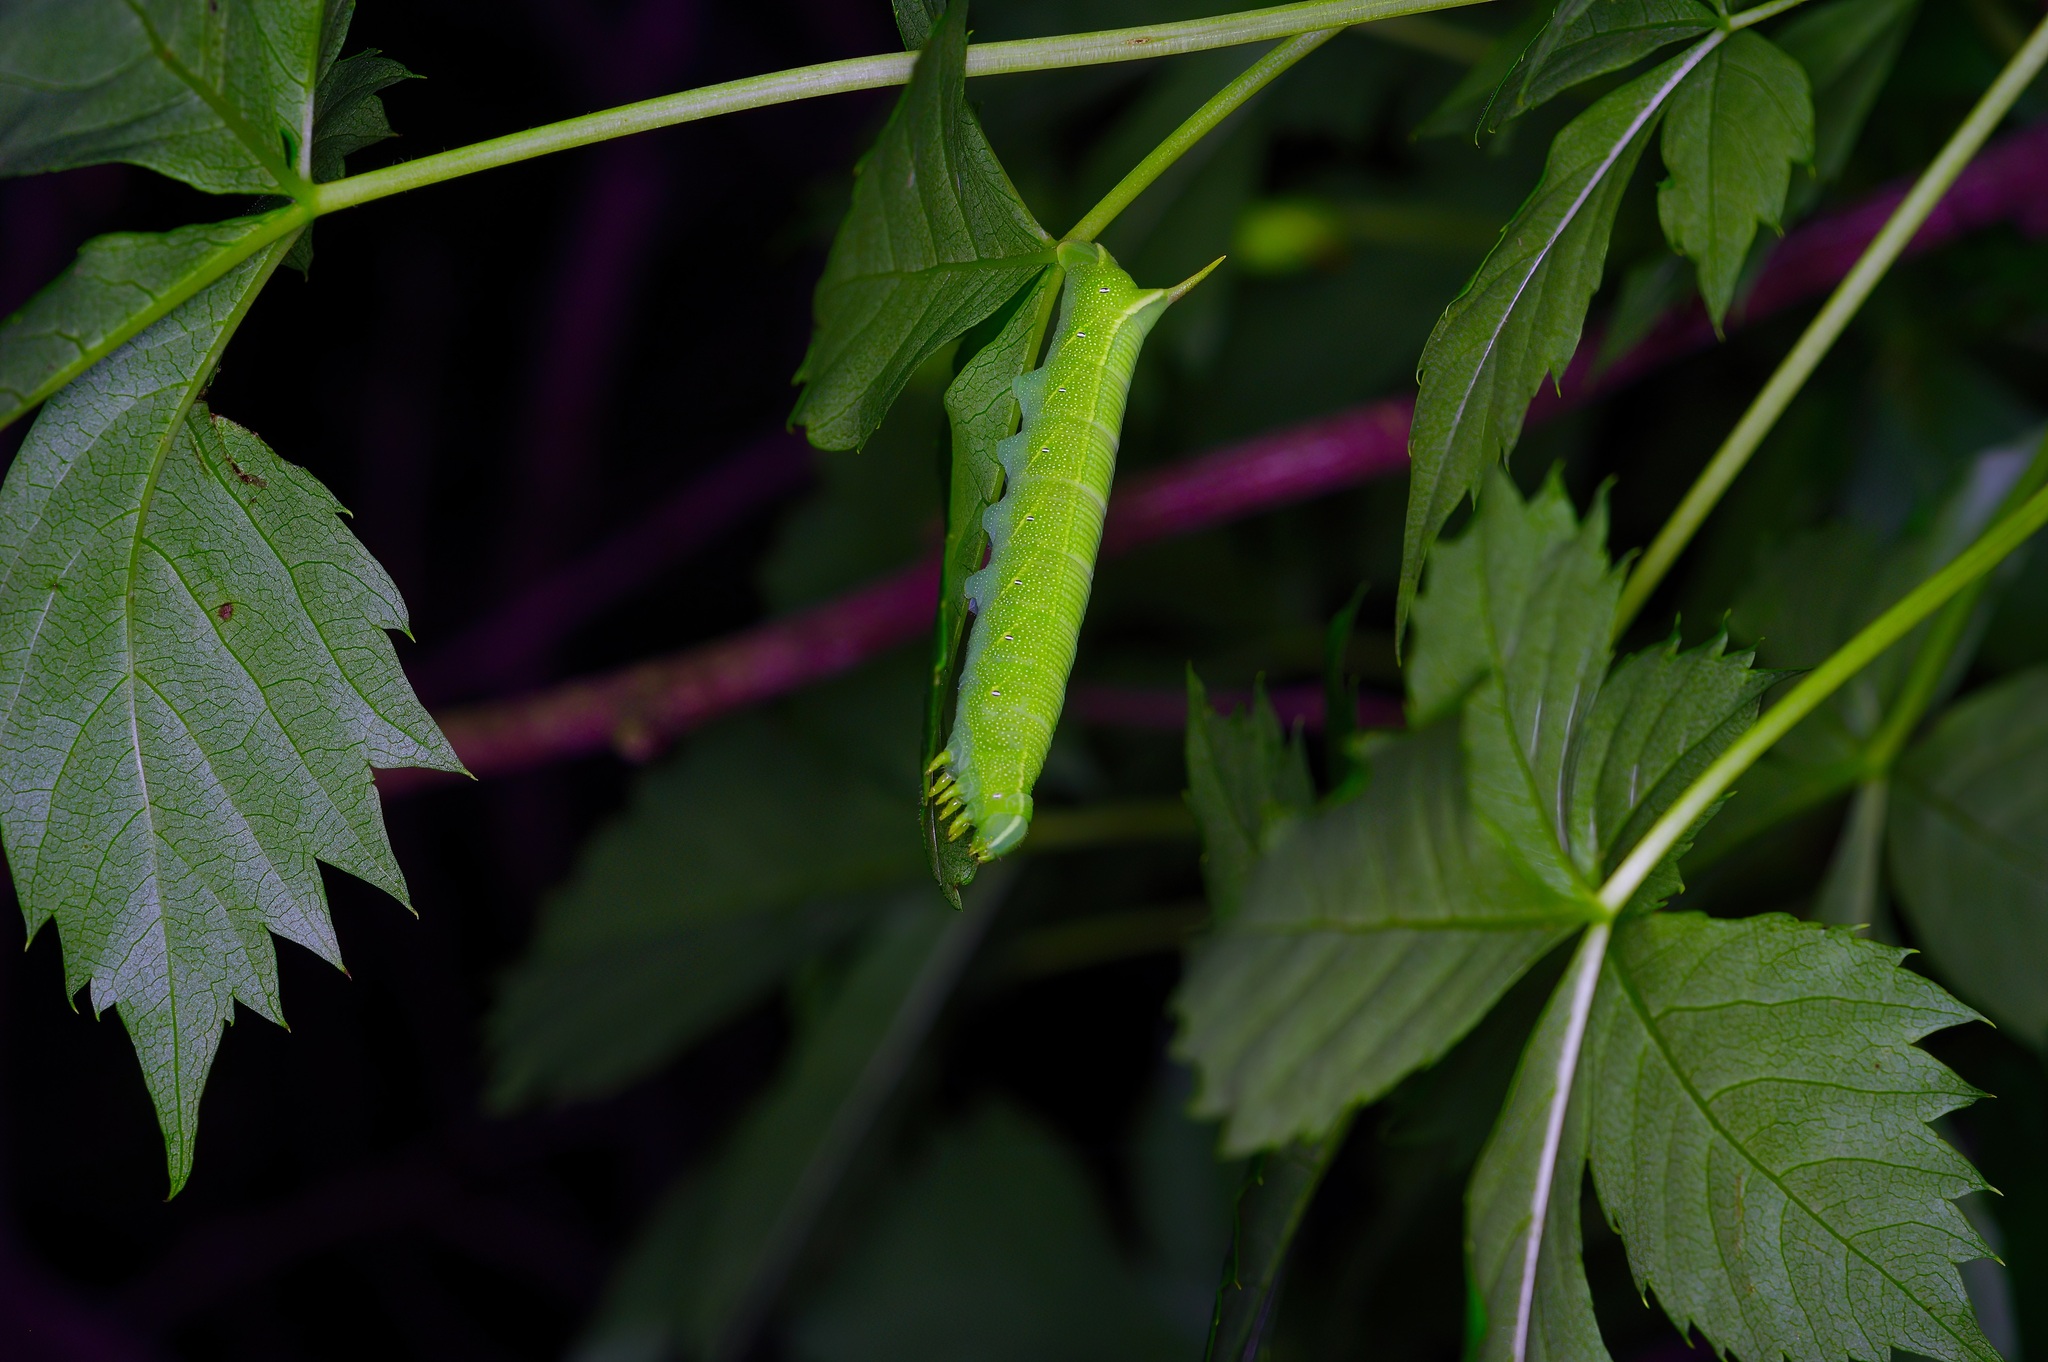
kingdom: Animalia
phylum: Arthropoda
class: Insecta
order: Lepidoptera
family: Sphingidae
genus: Deidamia
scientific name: Deidamia inscriptum
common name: Lettered sphinx
